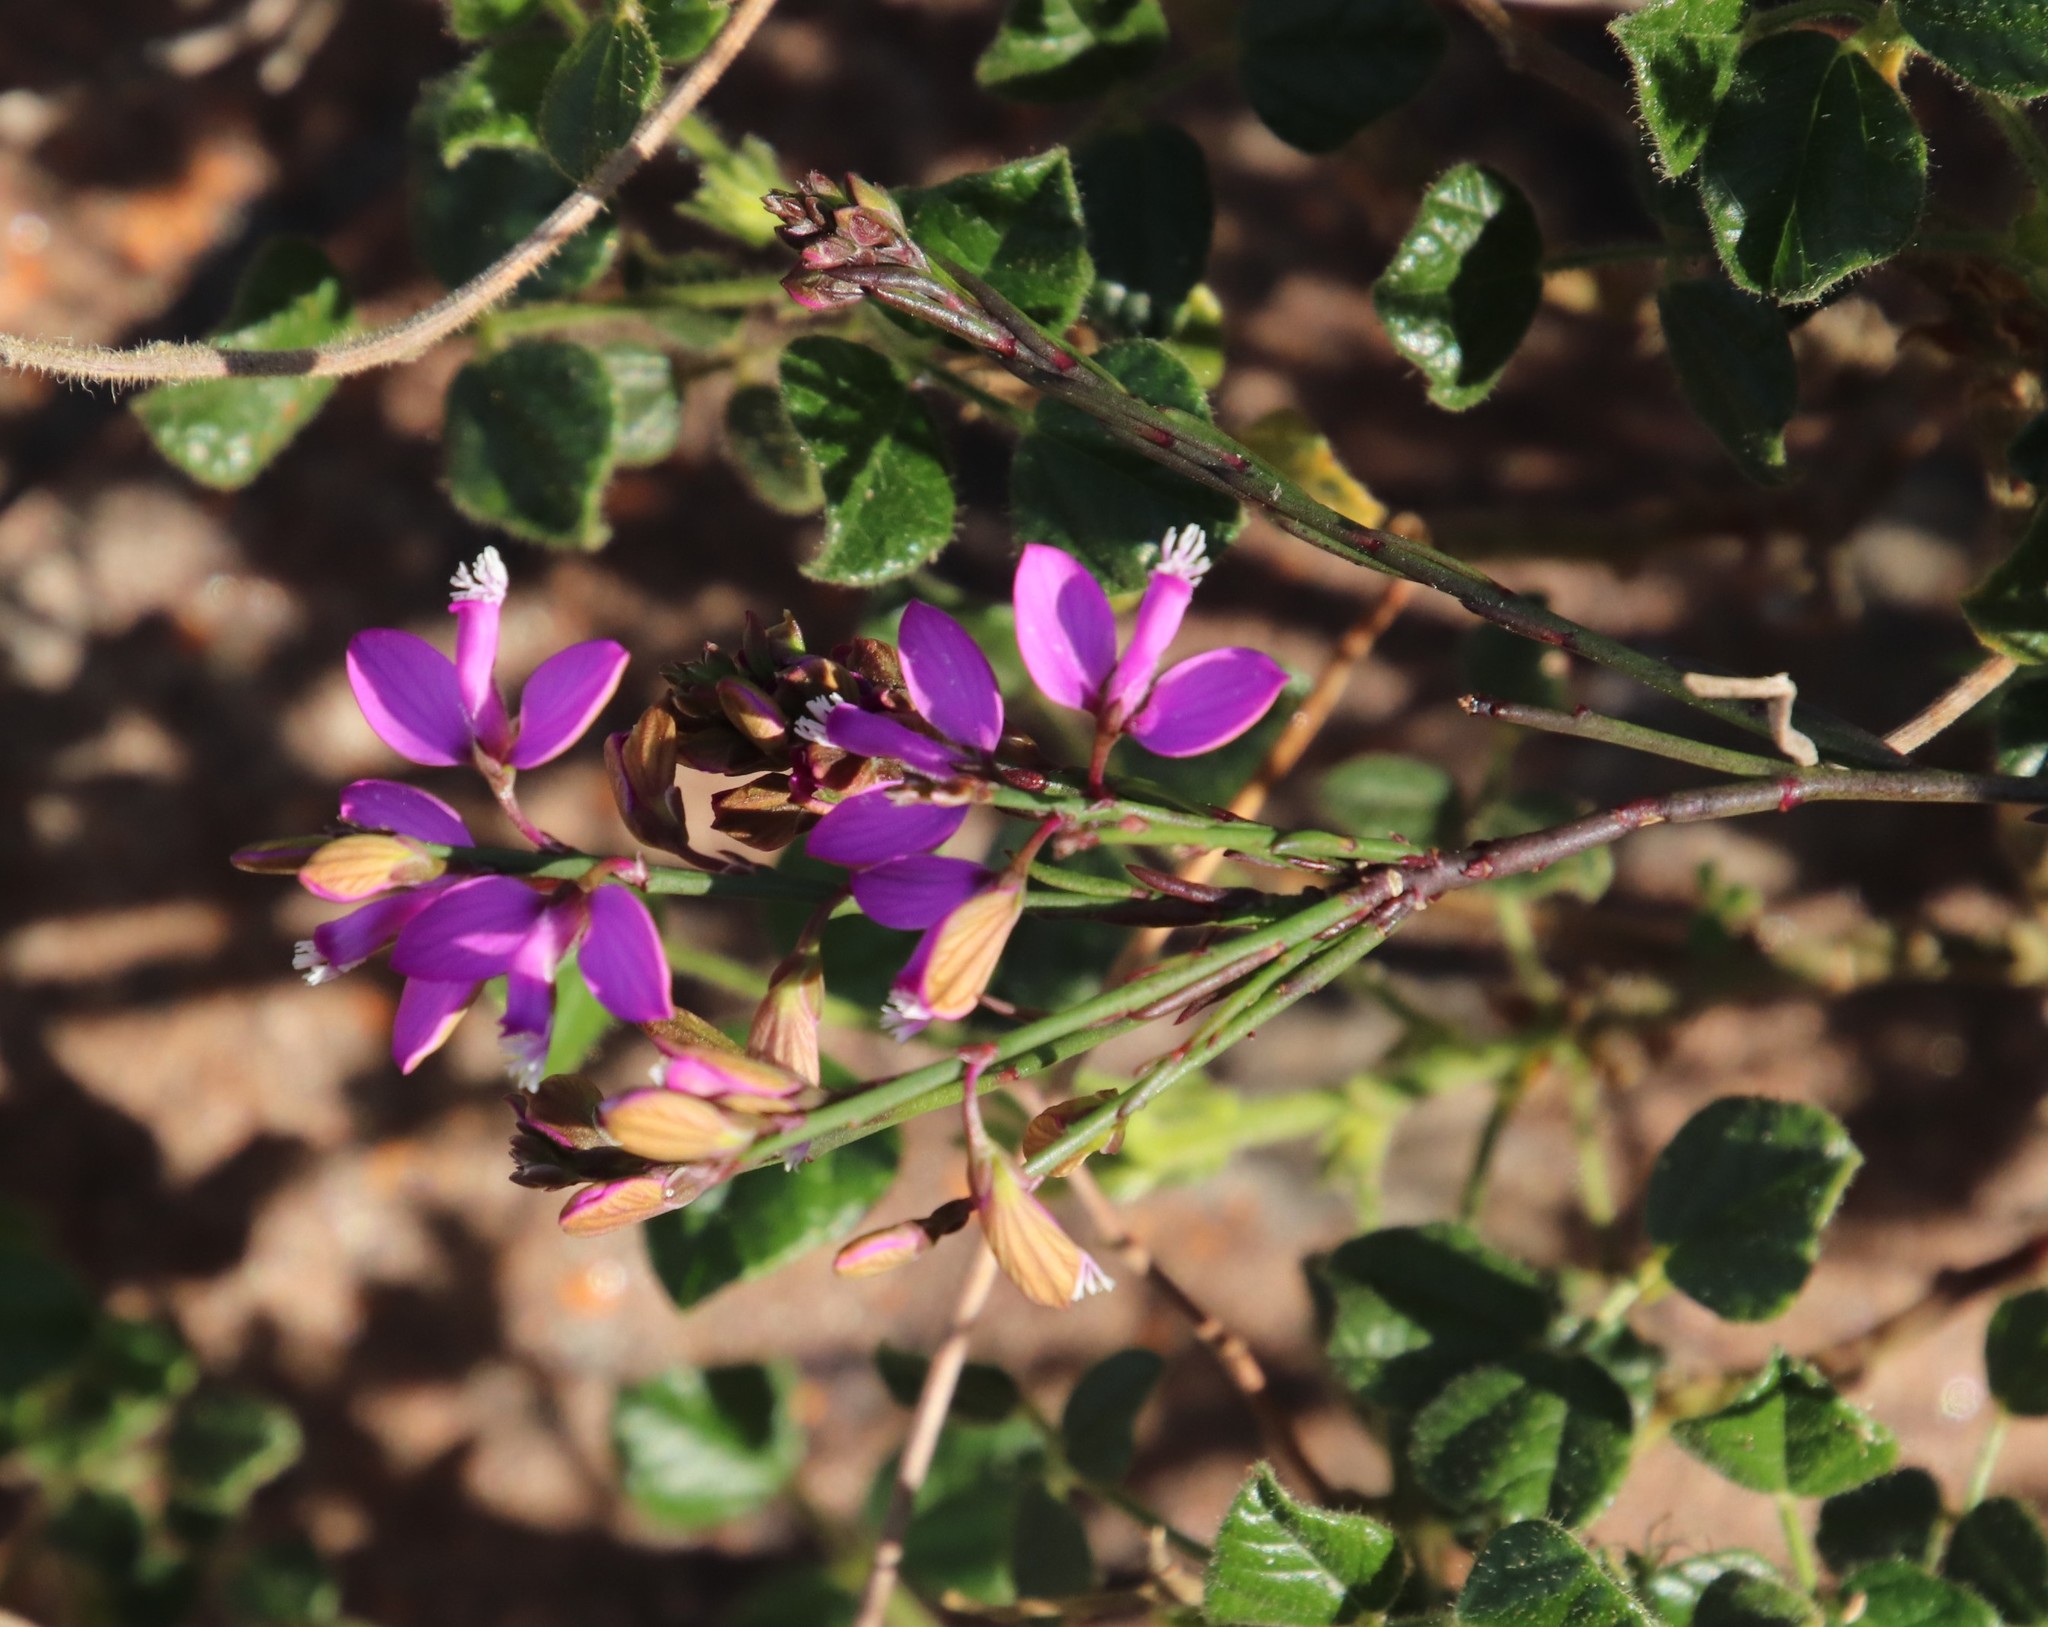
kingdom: Plantae
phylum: Tracheophyta
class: Magnoliopsida
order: Fabales
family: Polygalaceae
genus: Polygala
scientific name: Polygala garcini
